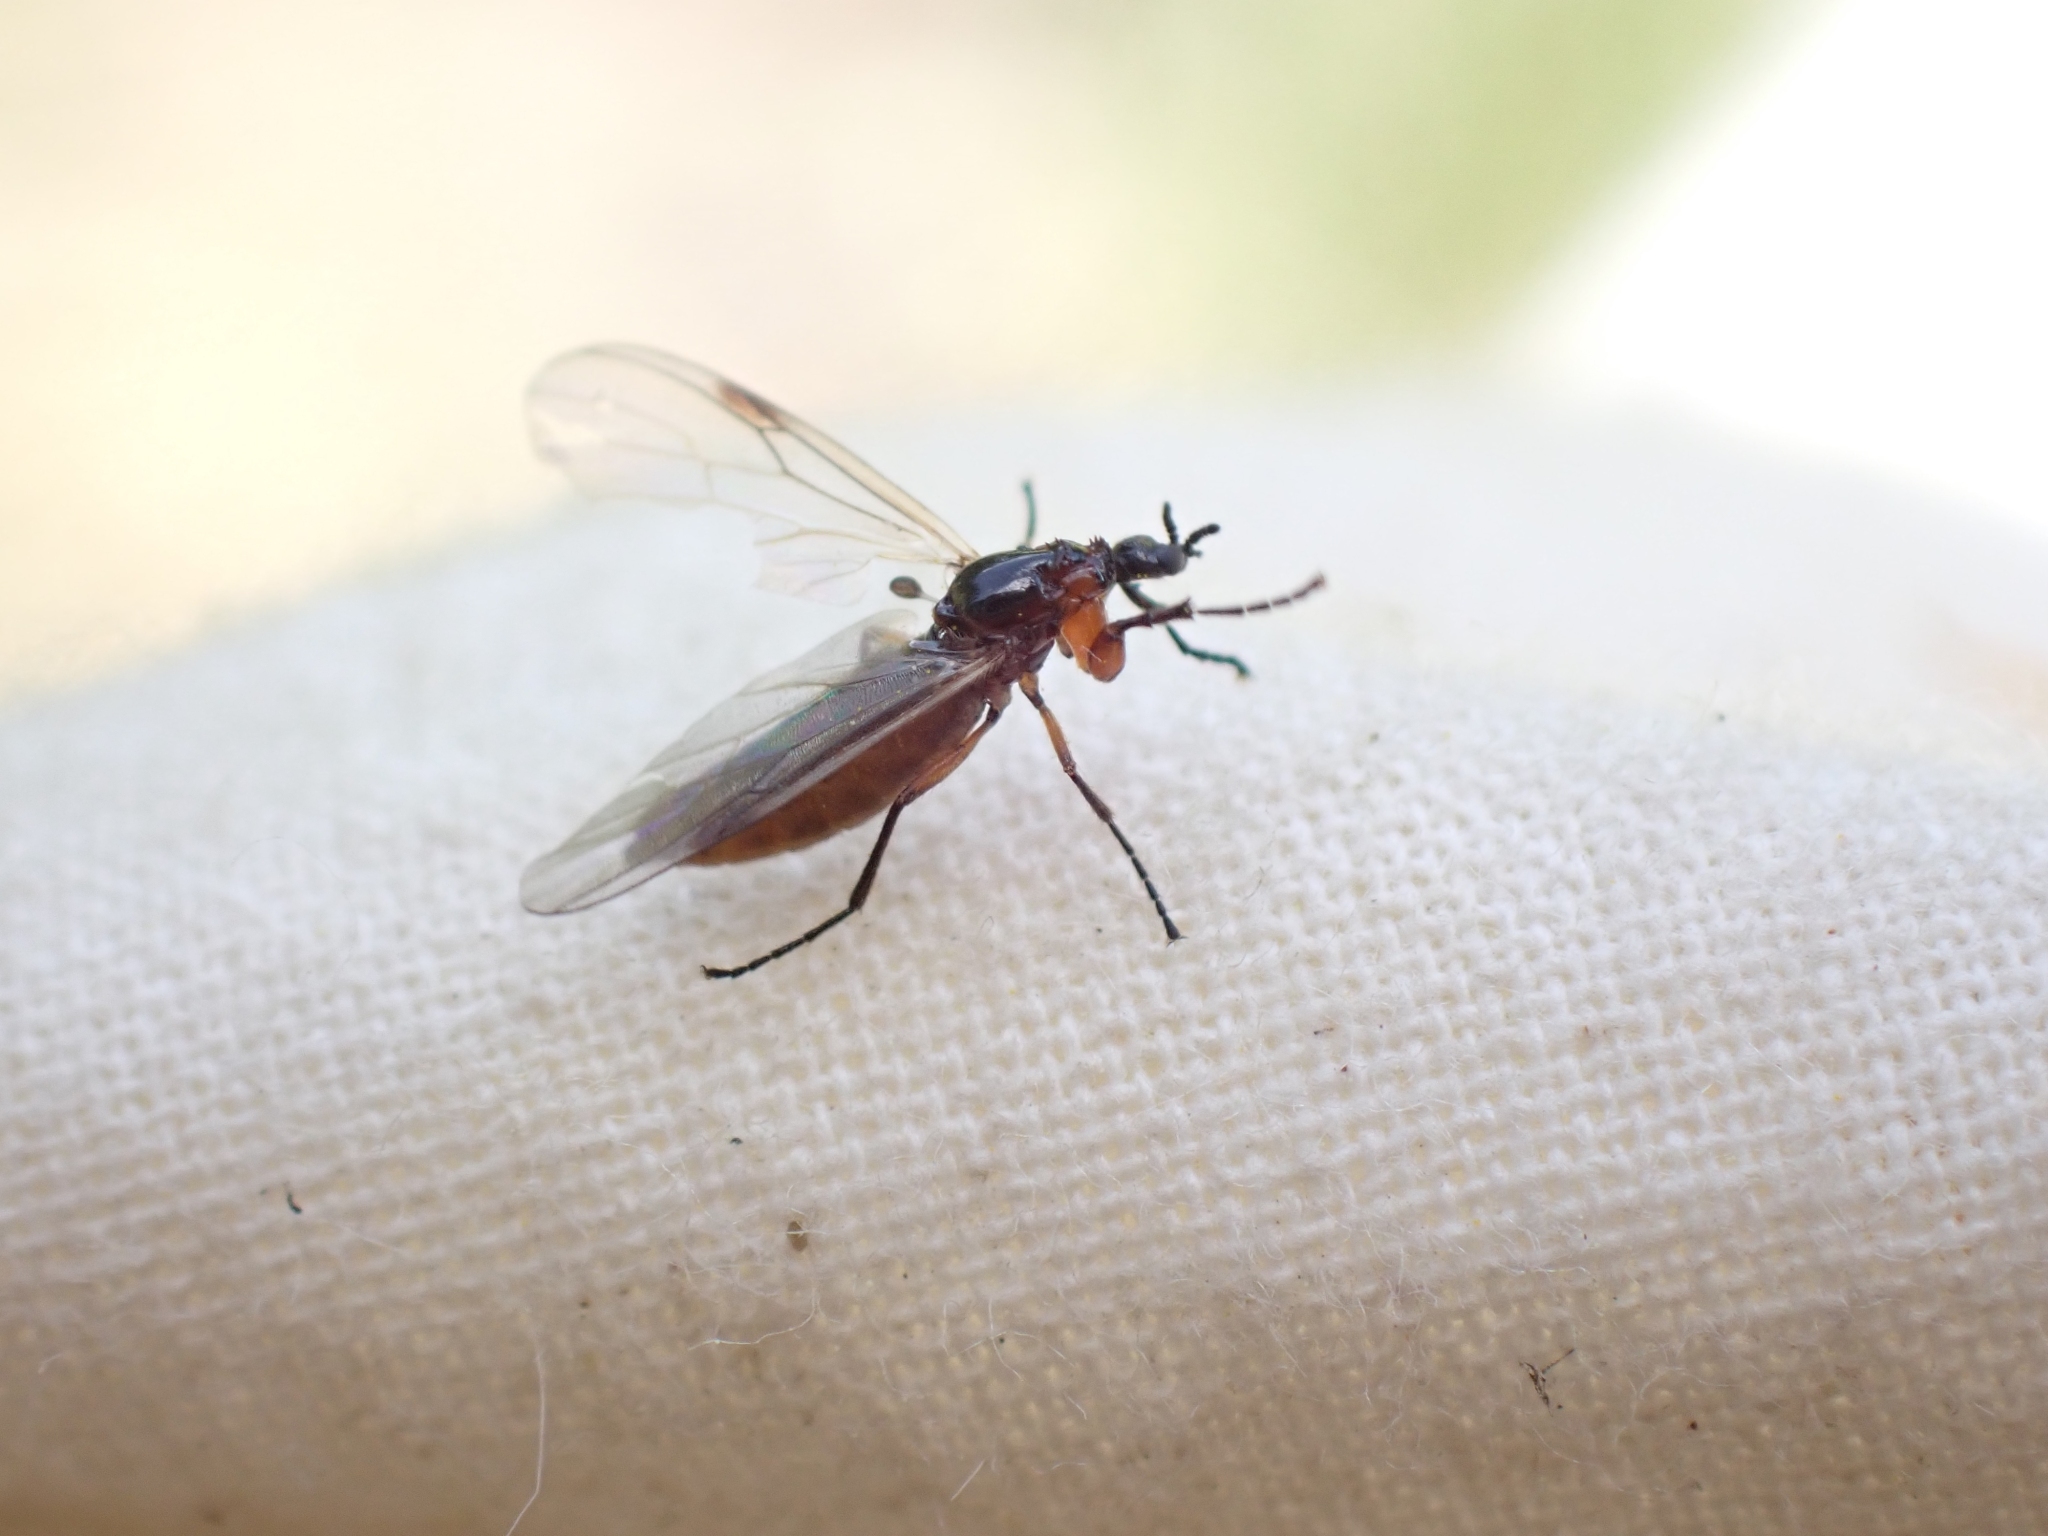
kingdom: Animalia
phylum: Arthropoda
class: Insecta
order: Diptera
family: Bibionidae
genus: Dilophus
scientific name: Dilophus
